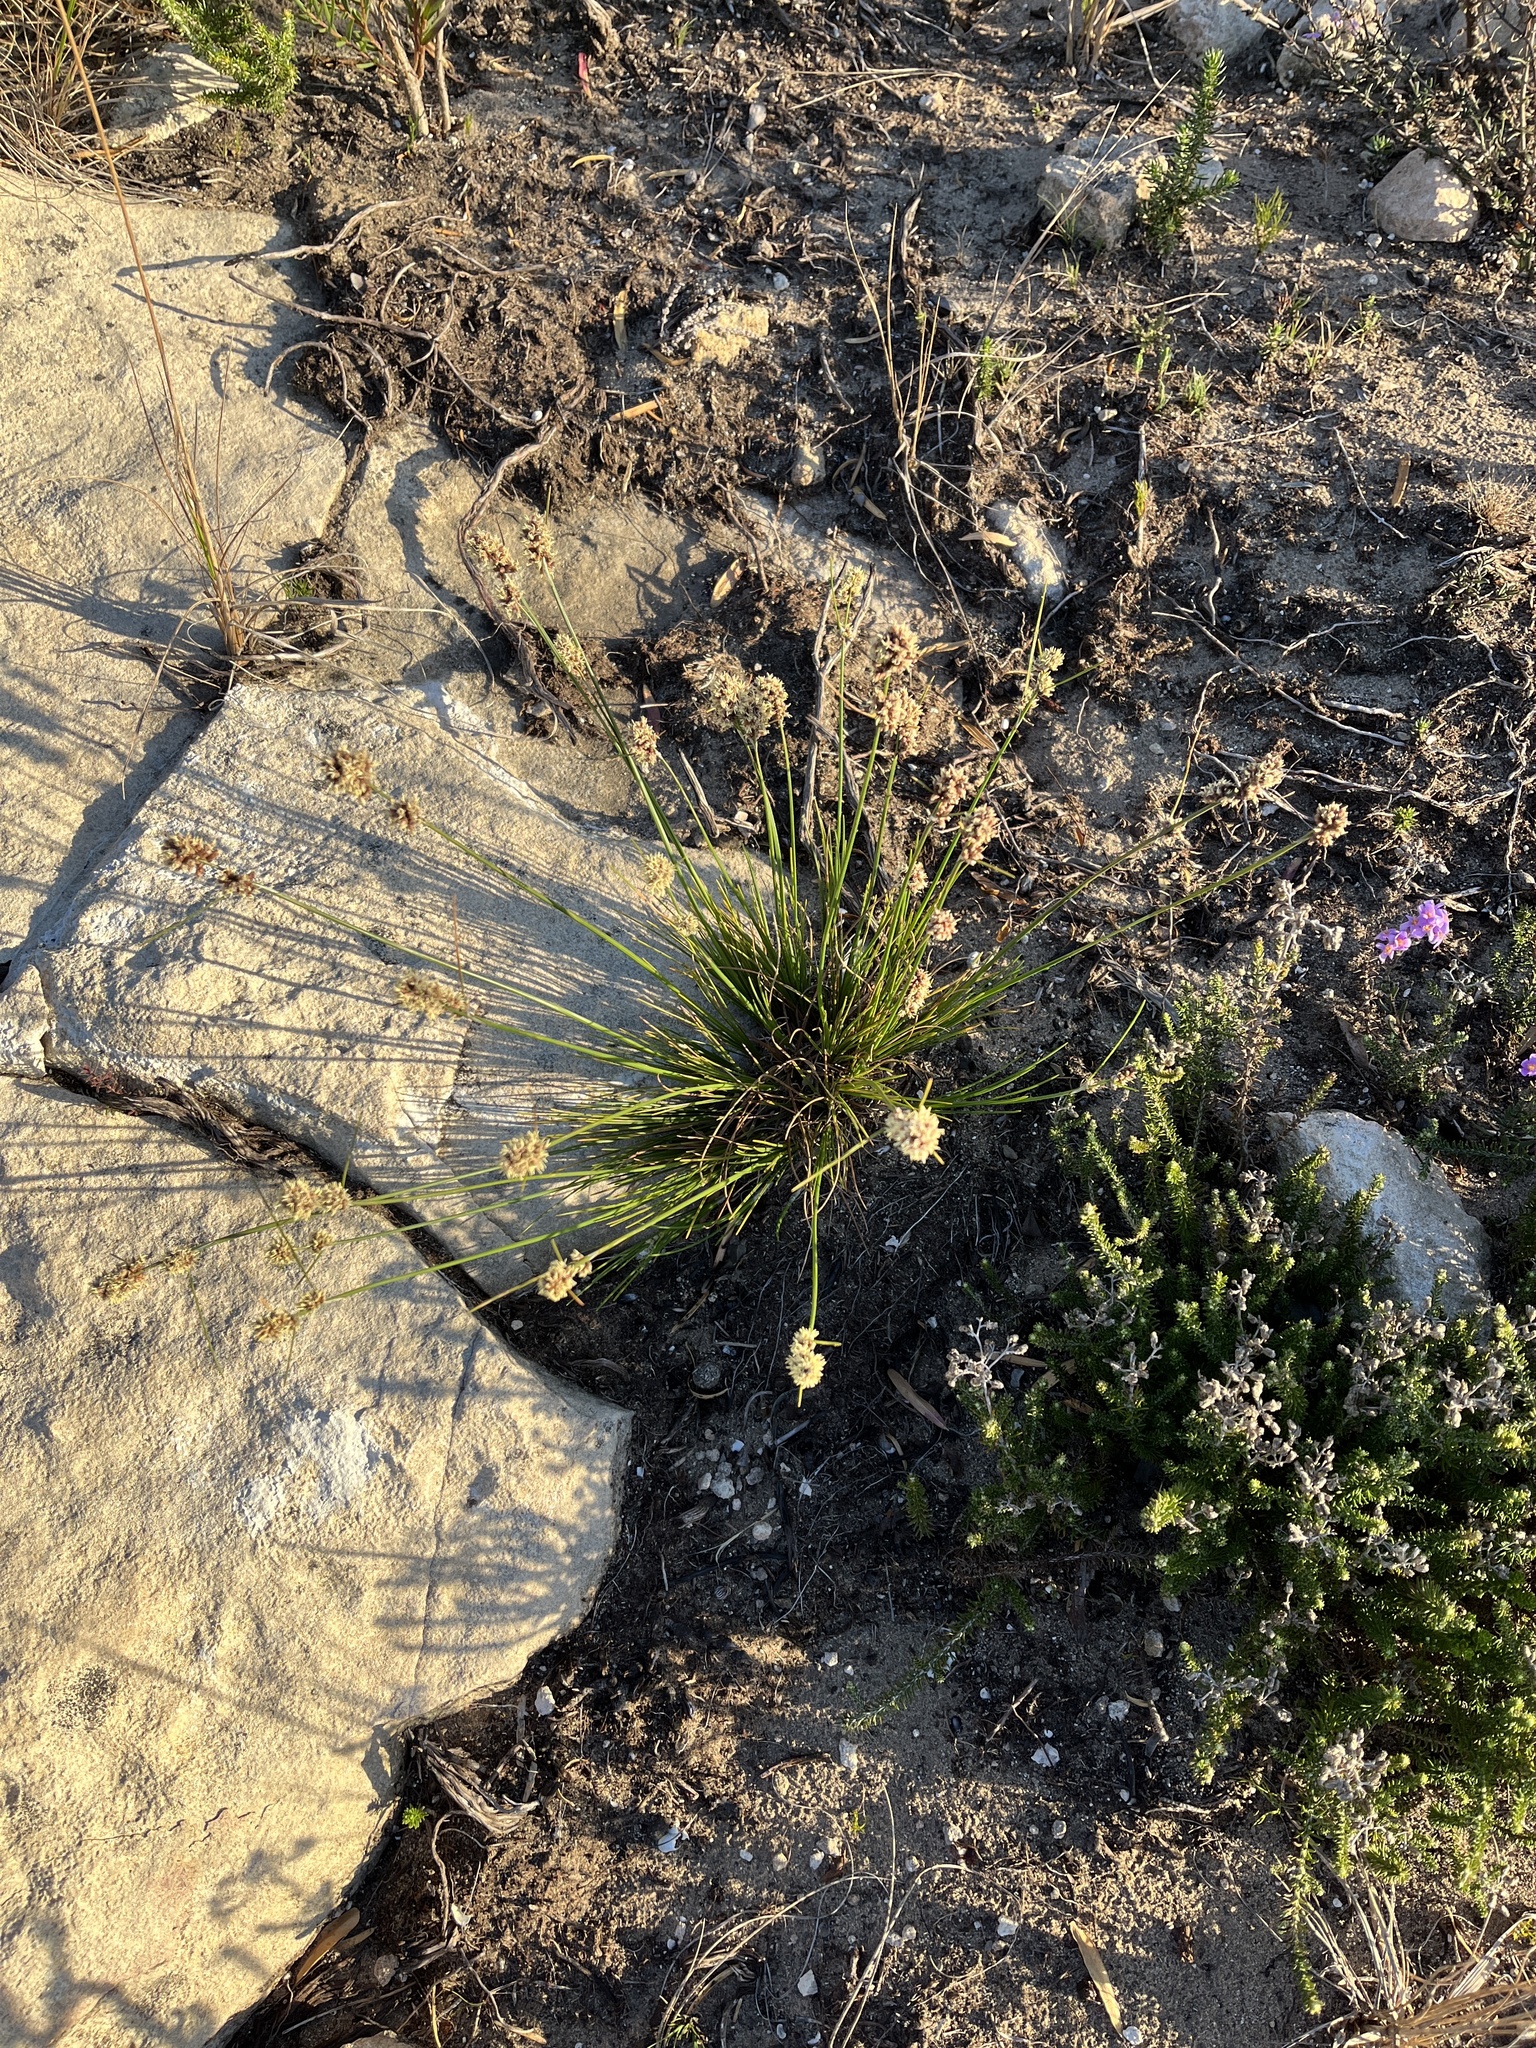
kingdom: Plantae
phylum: Tracheophyta
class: Liliopsida
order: Poales
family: Cyperaceae
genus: Ficinia
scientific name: Ficinia bulbosa
